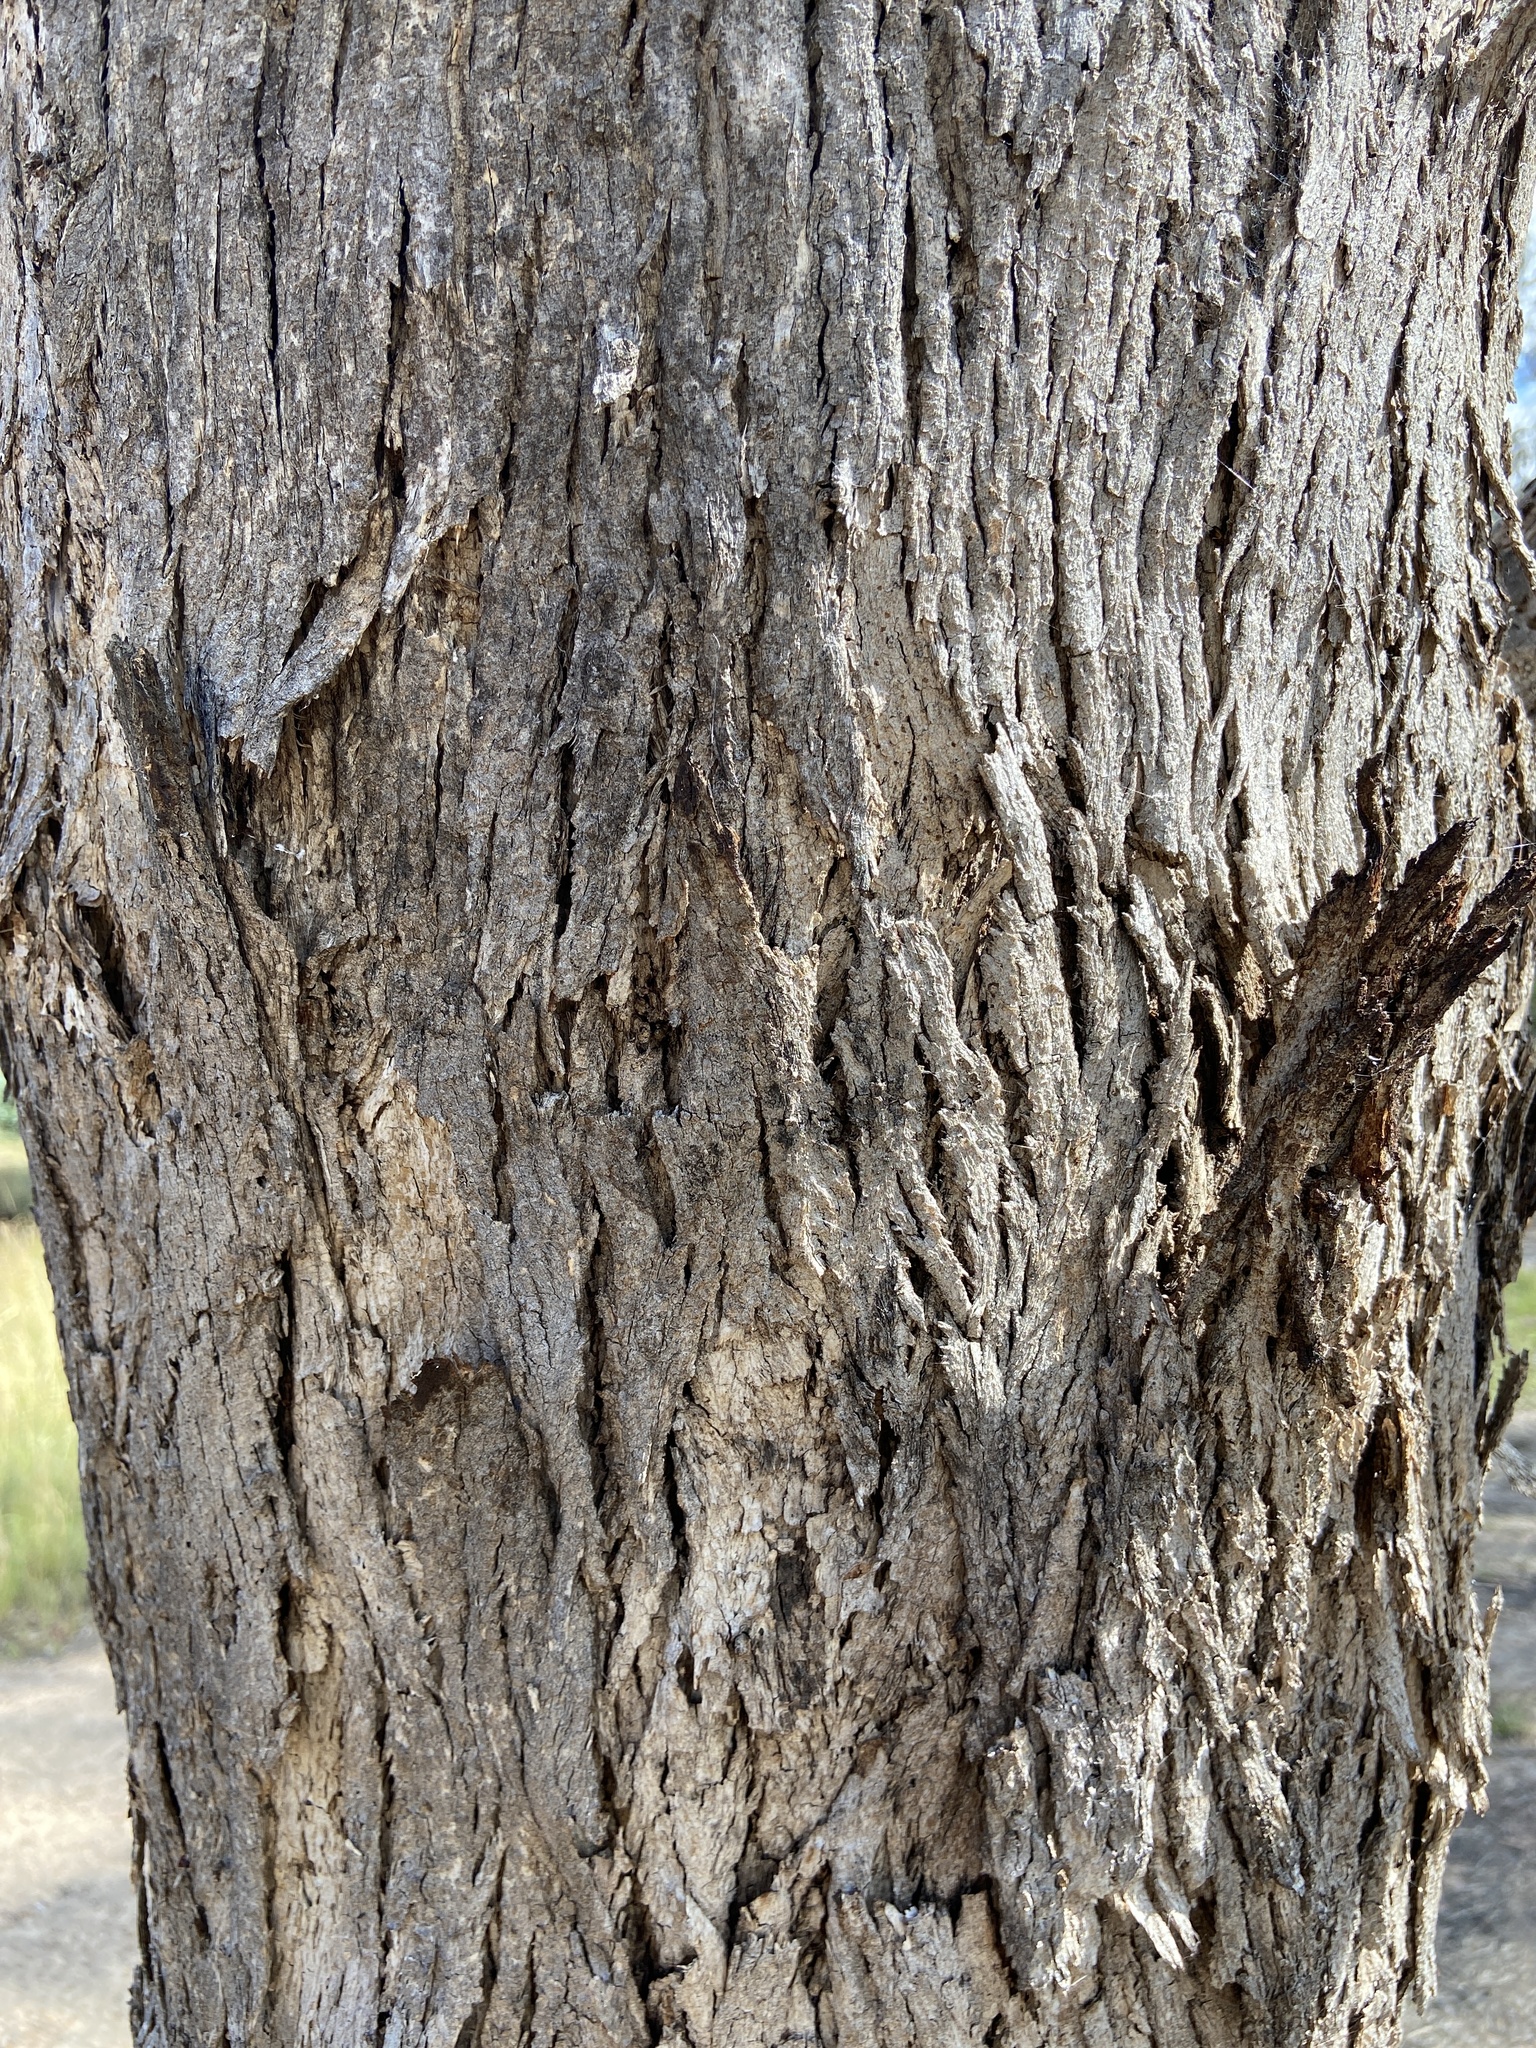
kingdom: Plantae
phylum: Tracheophyta
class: Magnoliopsida
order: Myrtales
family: Myrtaceae
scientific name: Myrtaceae
